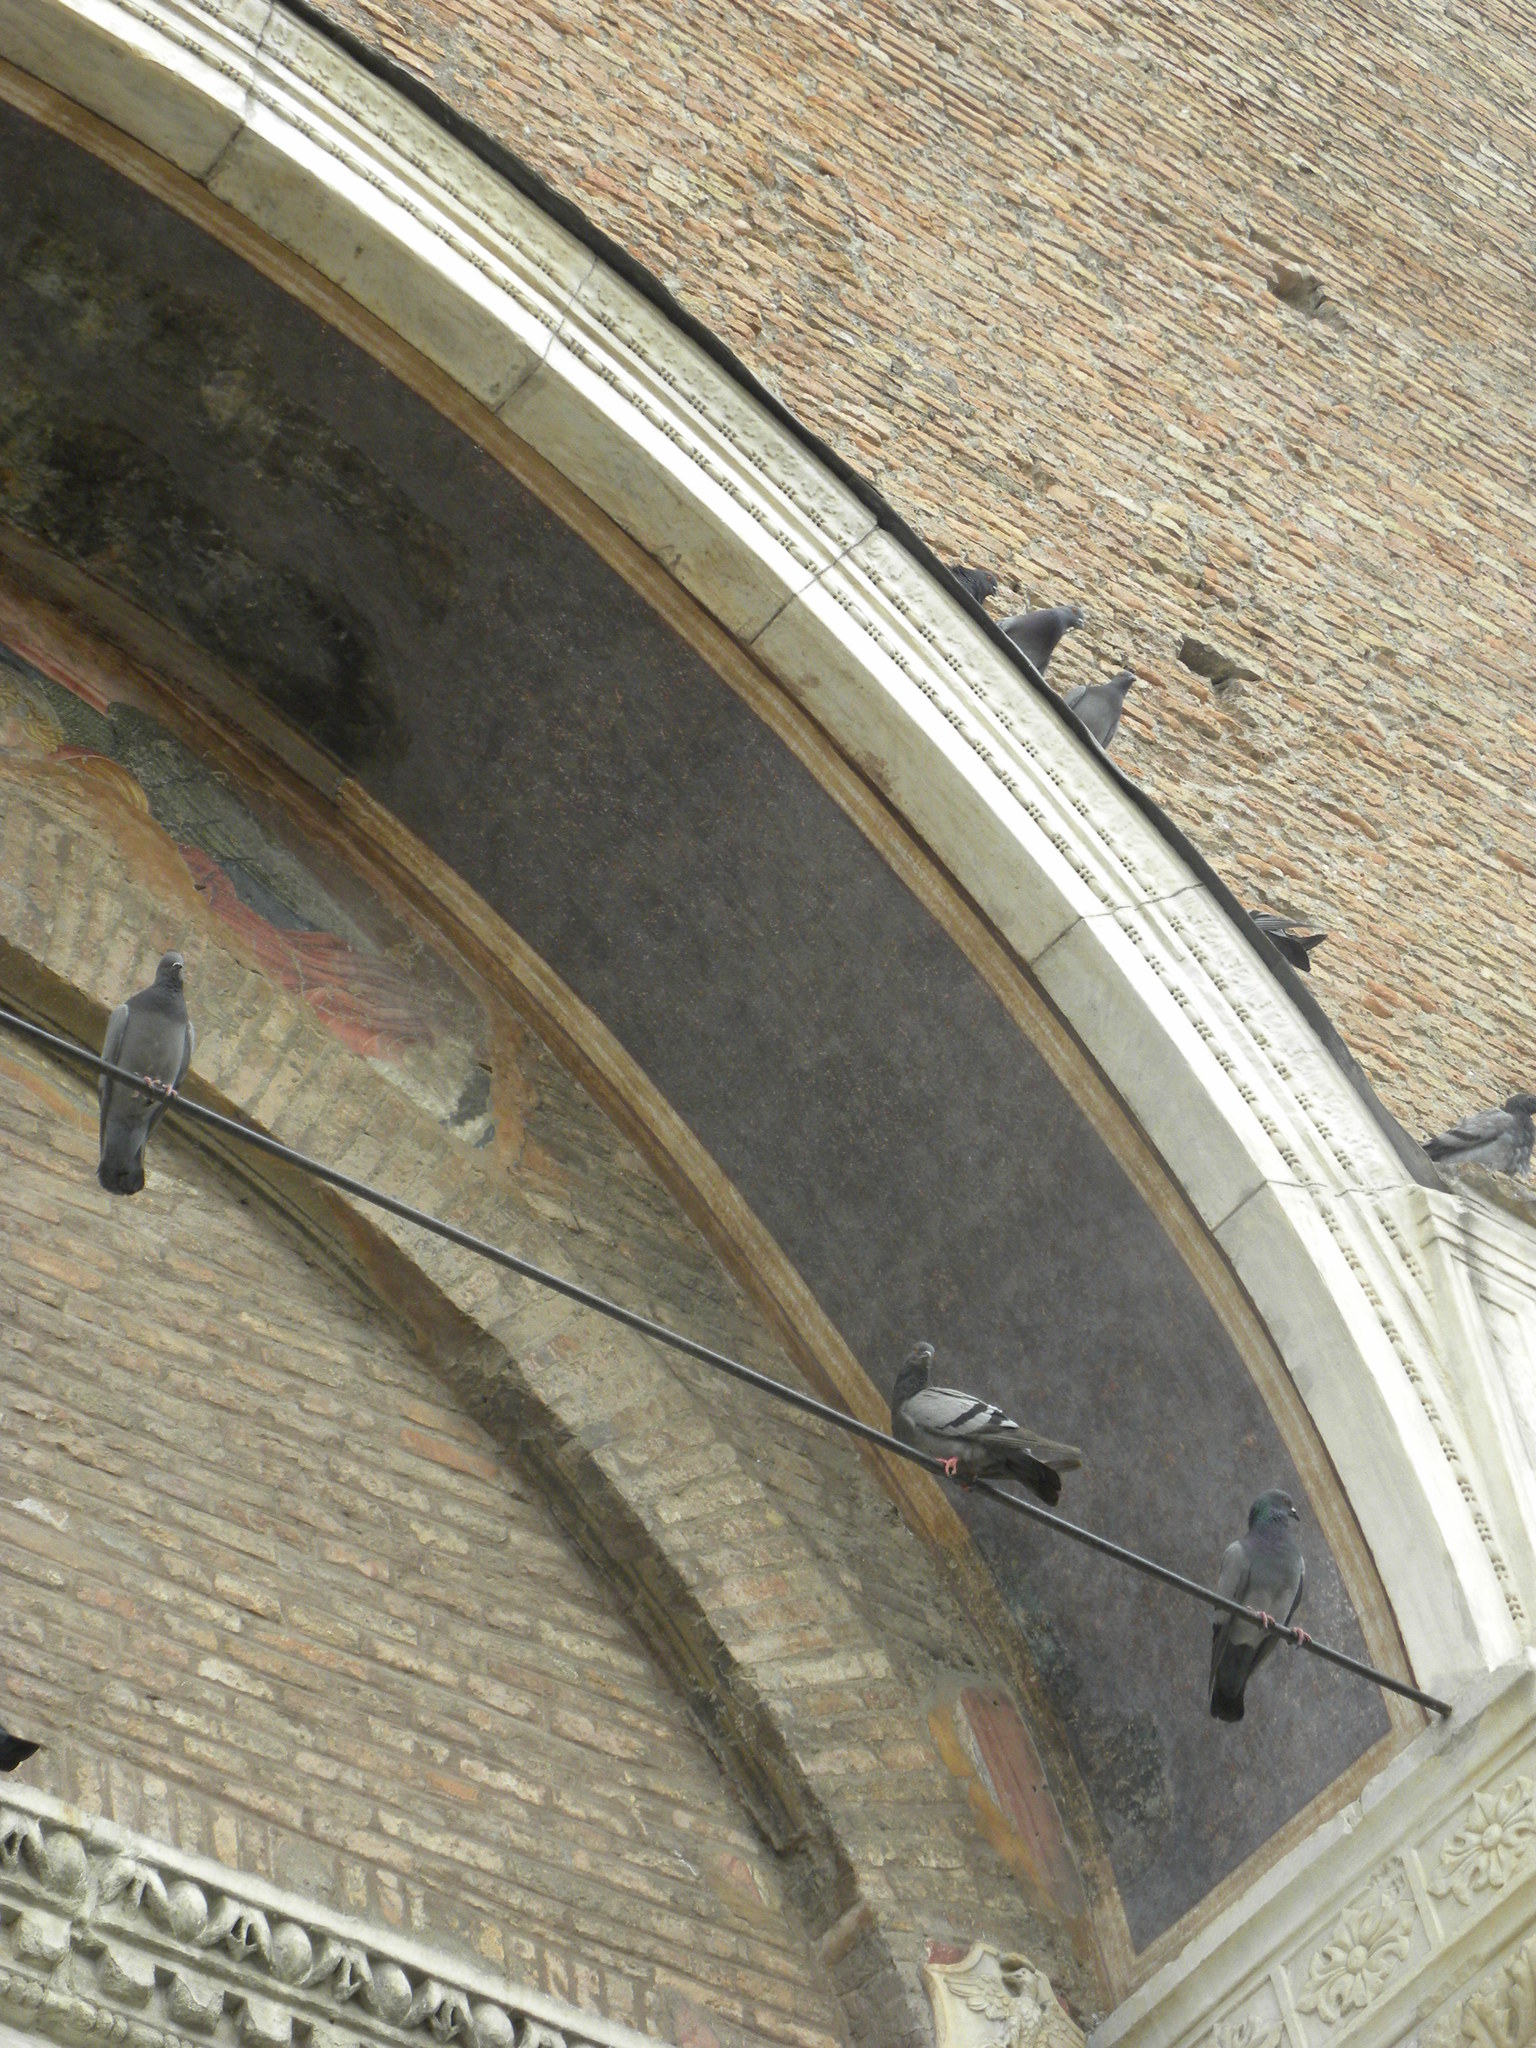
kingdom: Animalia
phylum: Chordata
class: Aves
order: Columbiformes
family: Columbidae
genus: Columba
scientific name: Columba livia
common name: Rock pigeon
